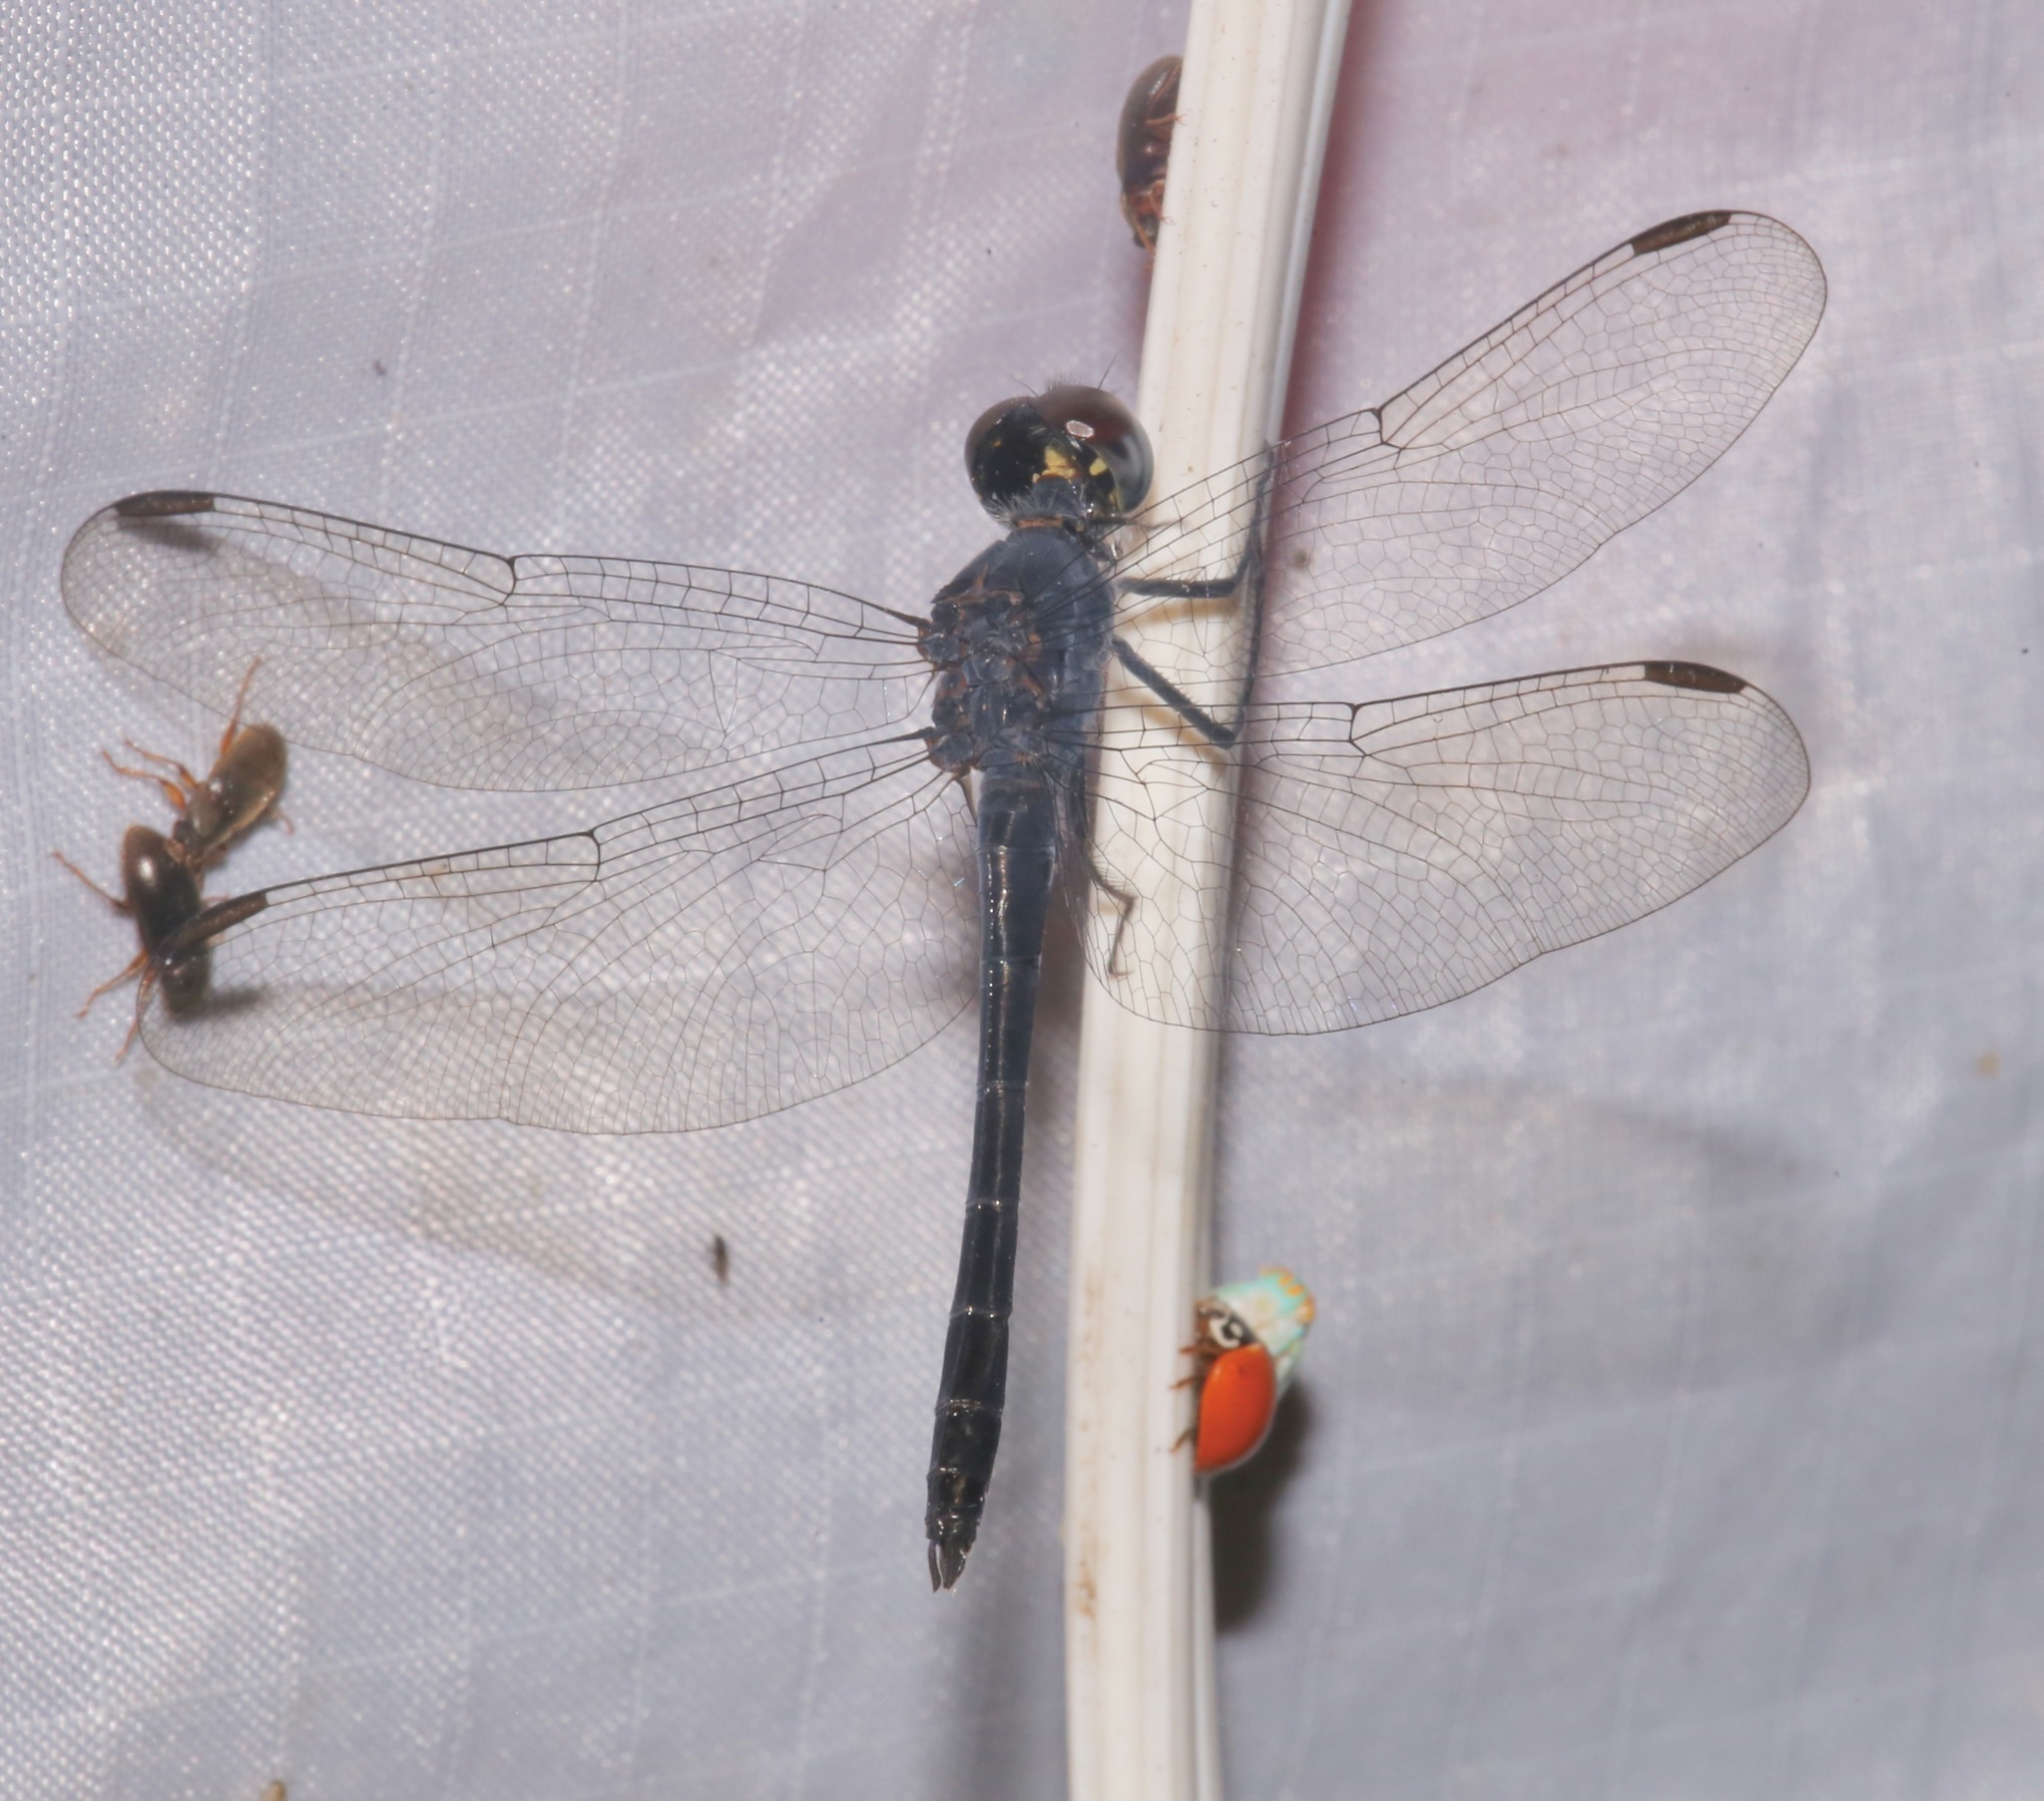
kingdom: Animalia
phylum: Arthropoda
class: Insecta
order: Odonata
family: Libellulidae
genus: Erythrodiplax
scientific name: Erythrodiplax berenice
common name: Seaside dragonlet
